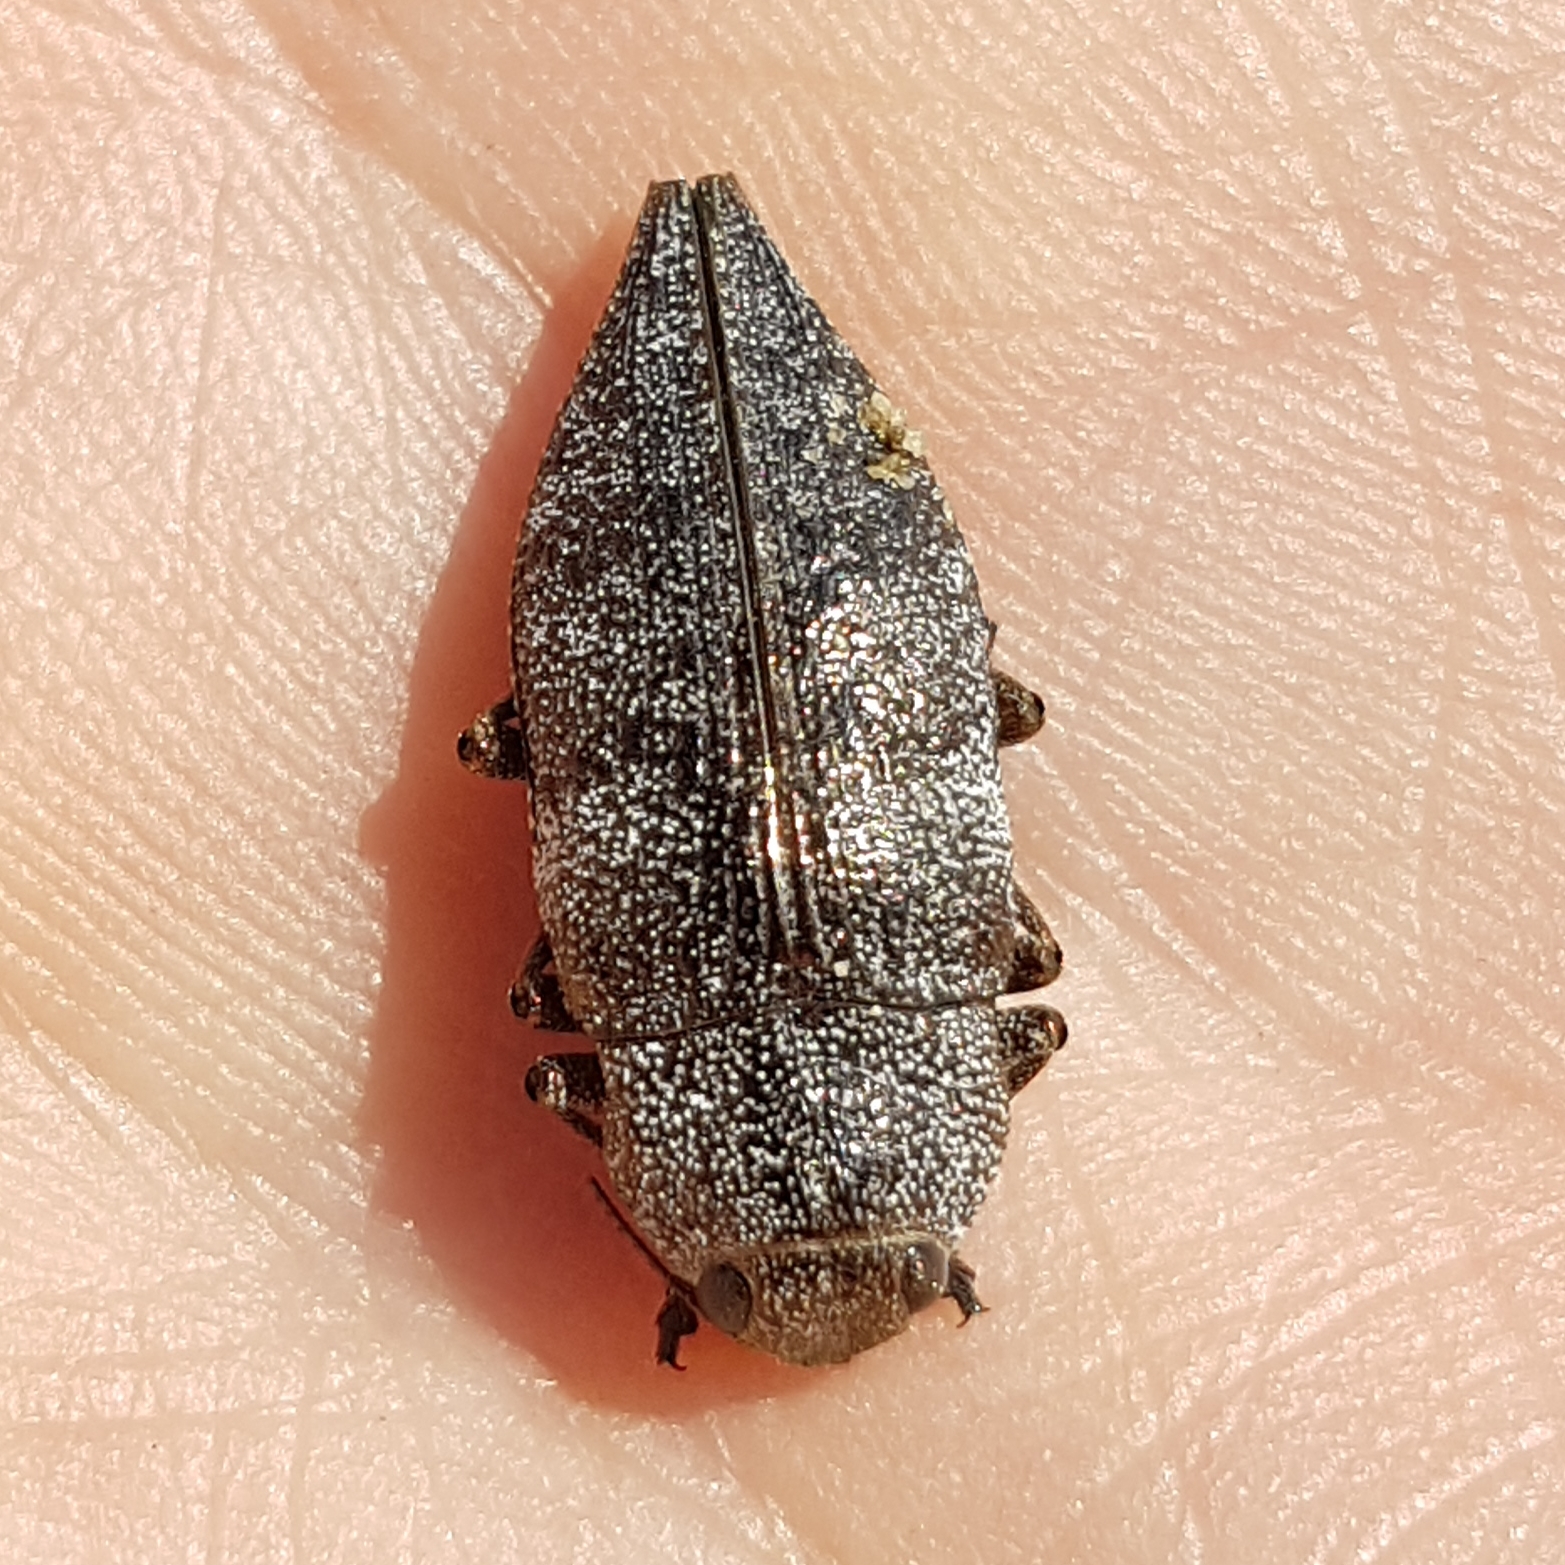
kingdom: Animalia
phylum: Arthropoda
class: Insecta
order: Coleoptera
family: Buprestidae
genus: Dicerca
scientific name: Dicerca aenea
